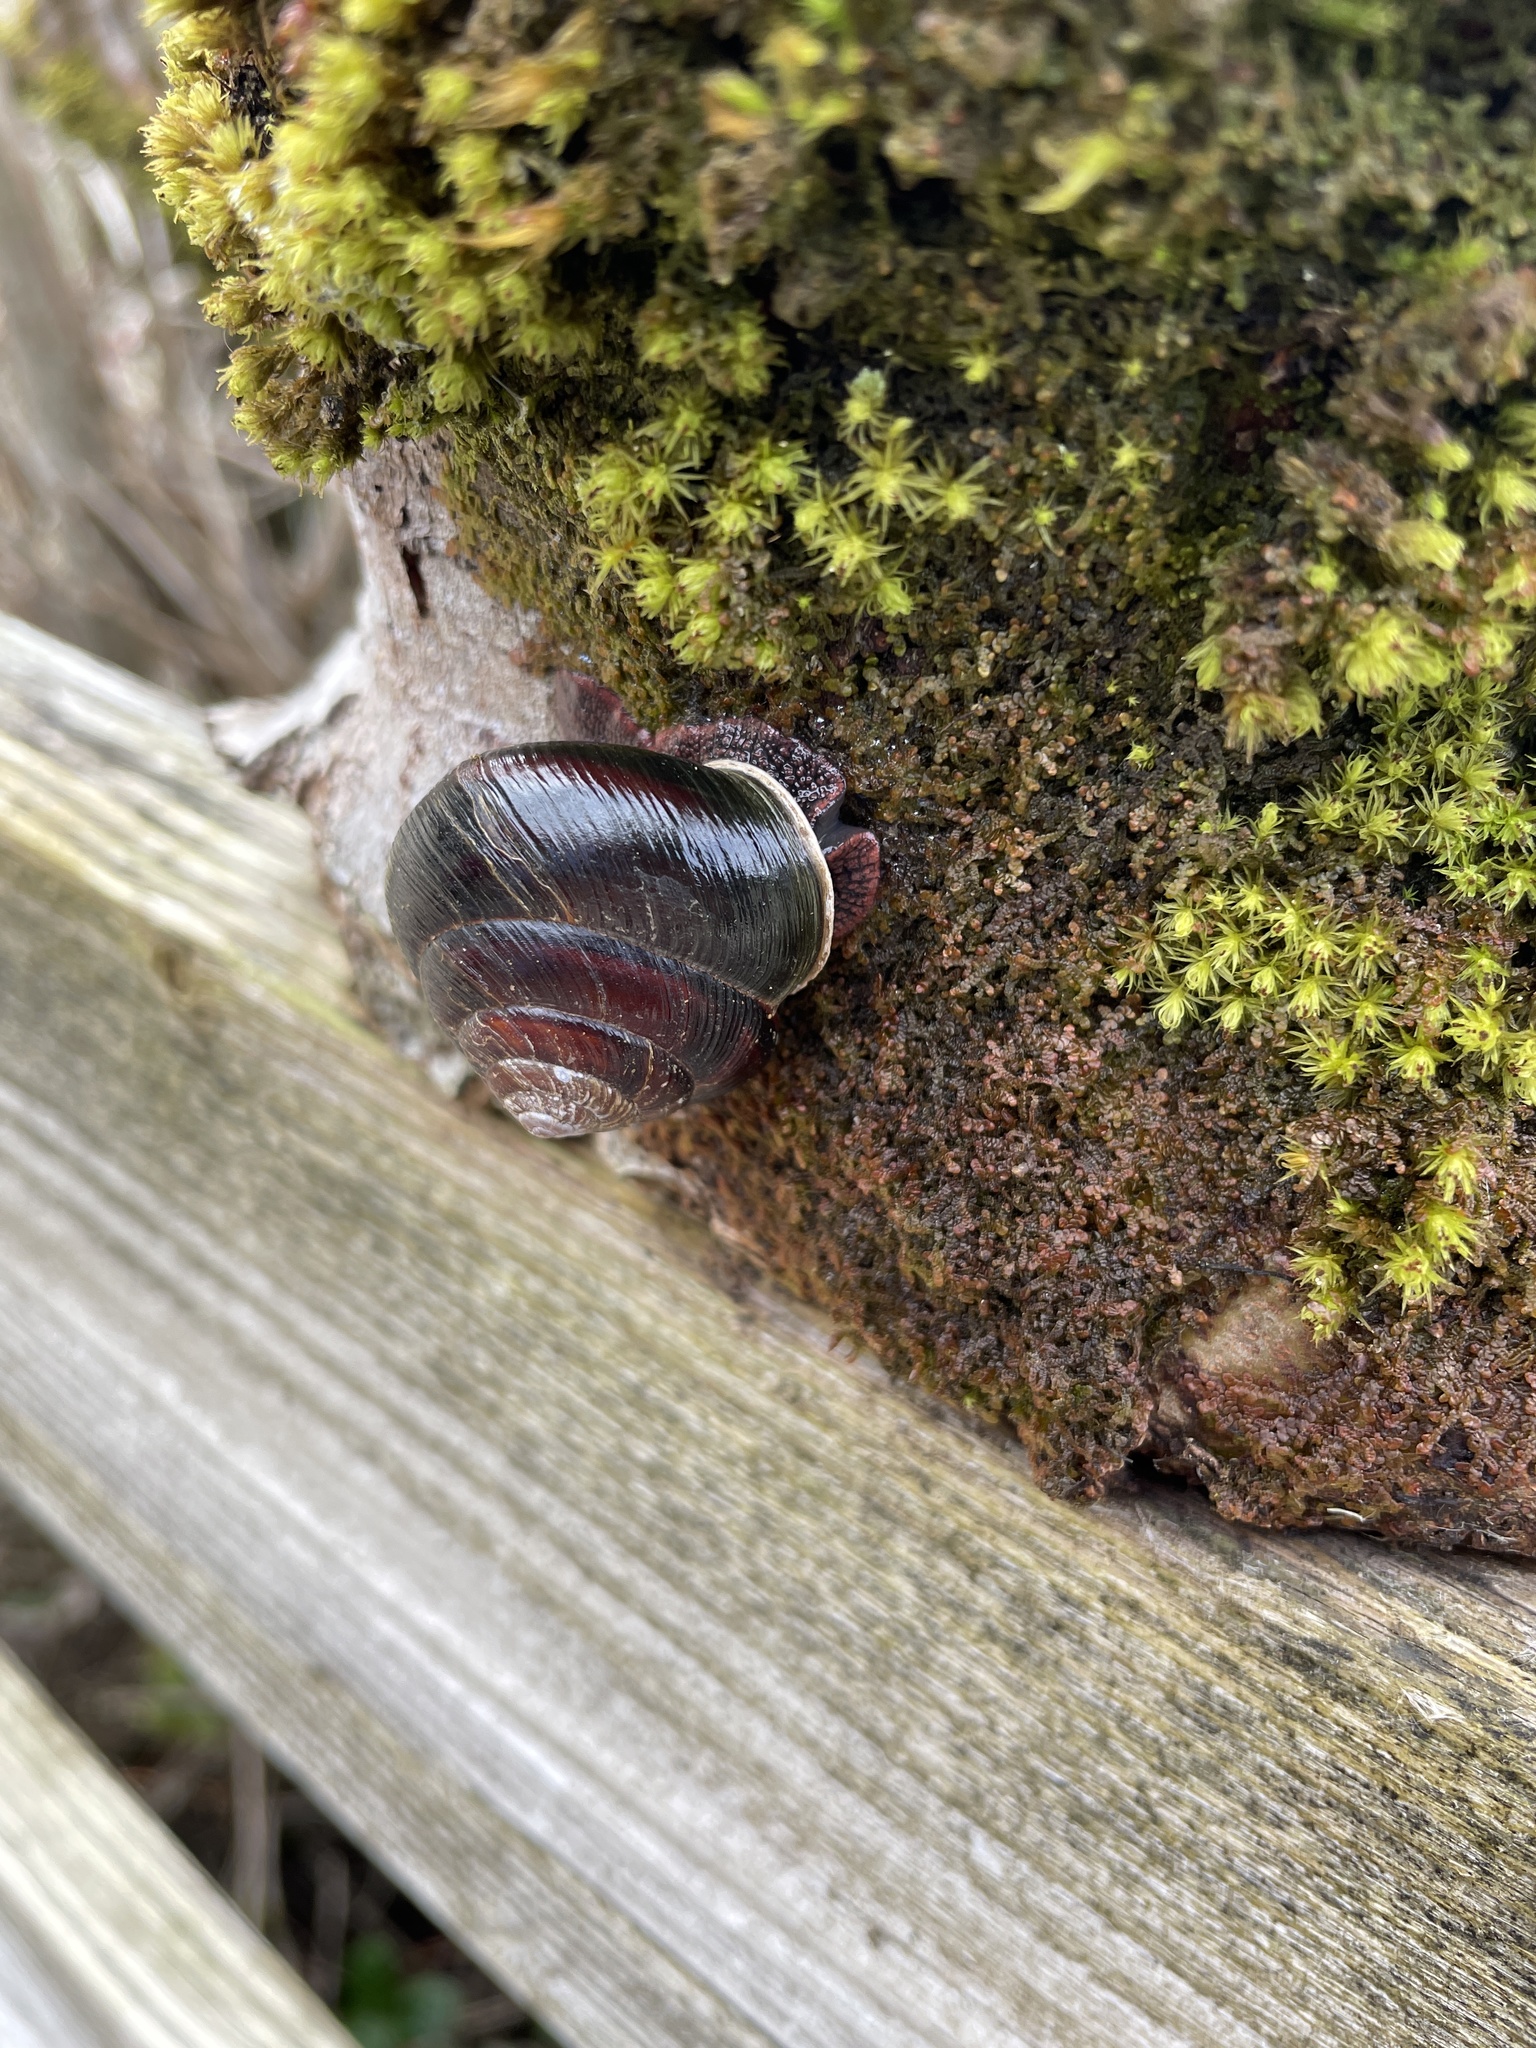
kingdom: Animalia
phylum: Mollusca
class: Gastropoda
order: Stylommatophora
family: Xanthonychidae
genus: Monadenia
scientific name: Monadenia fidelis
